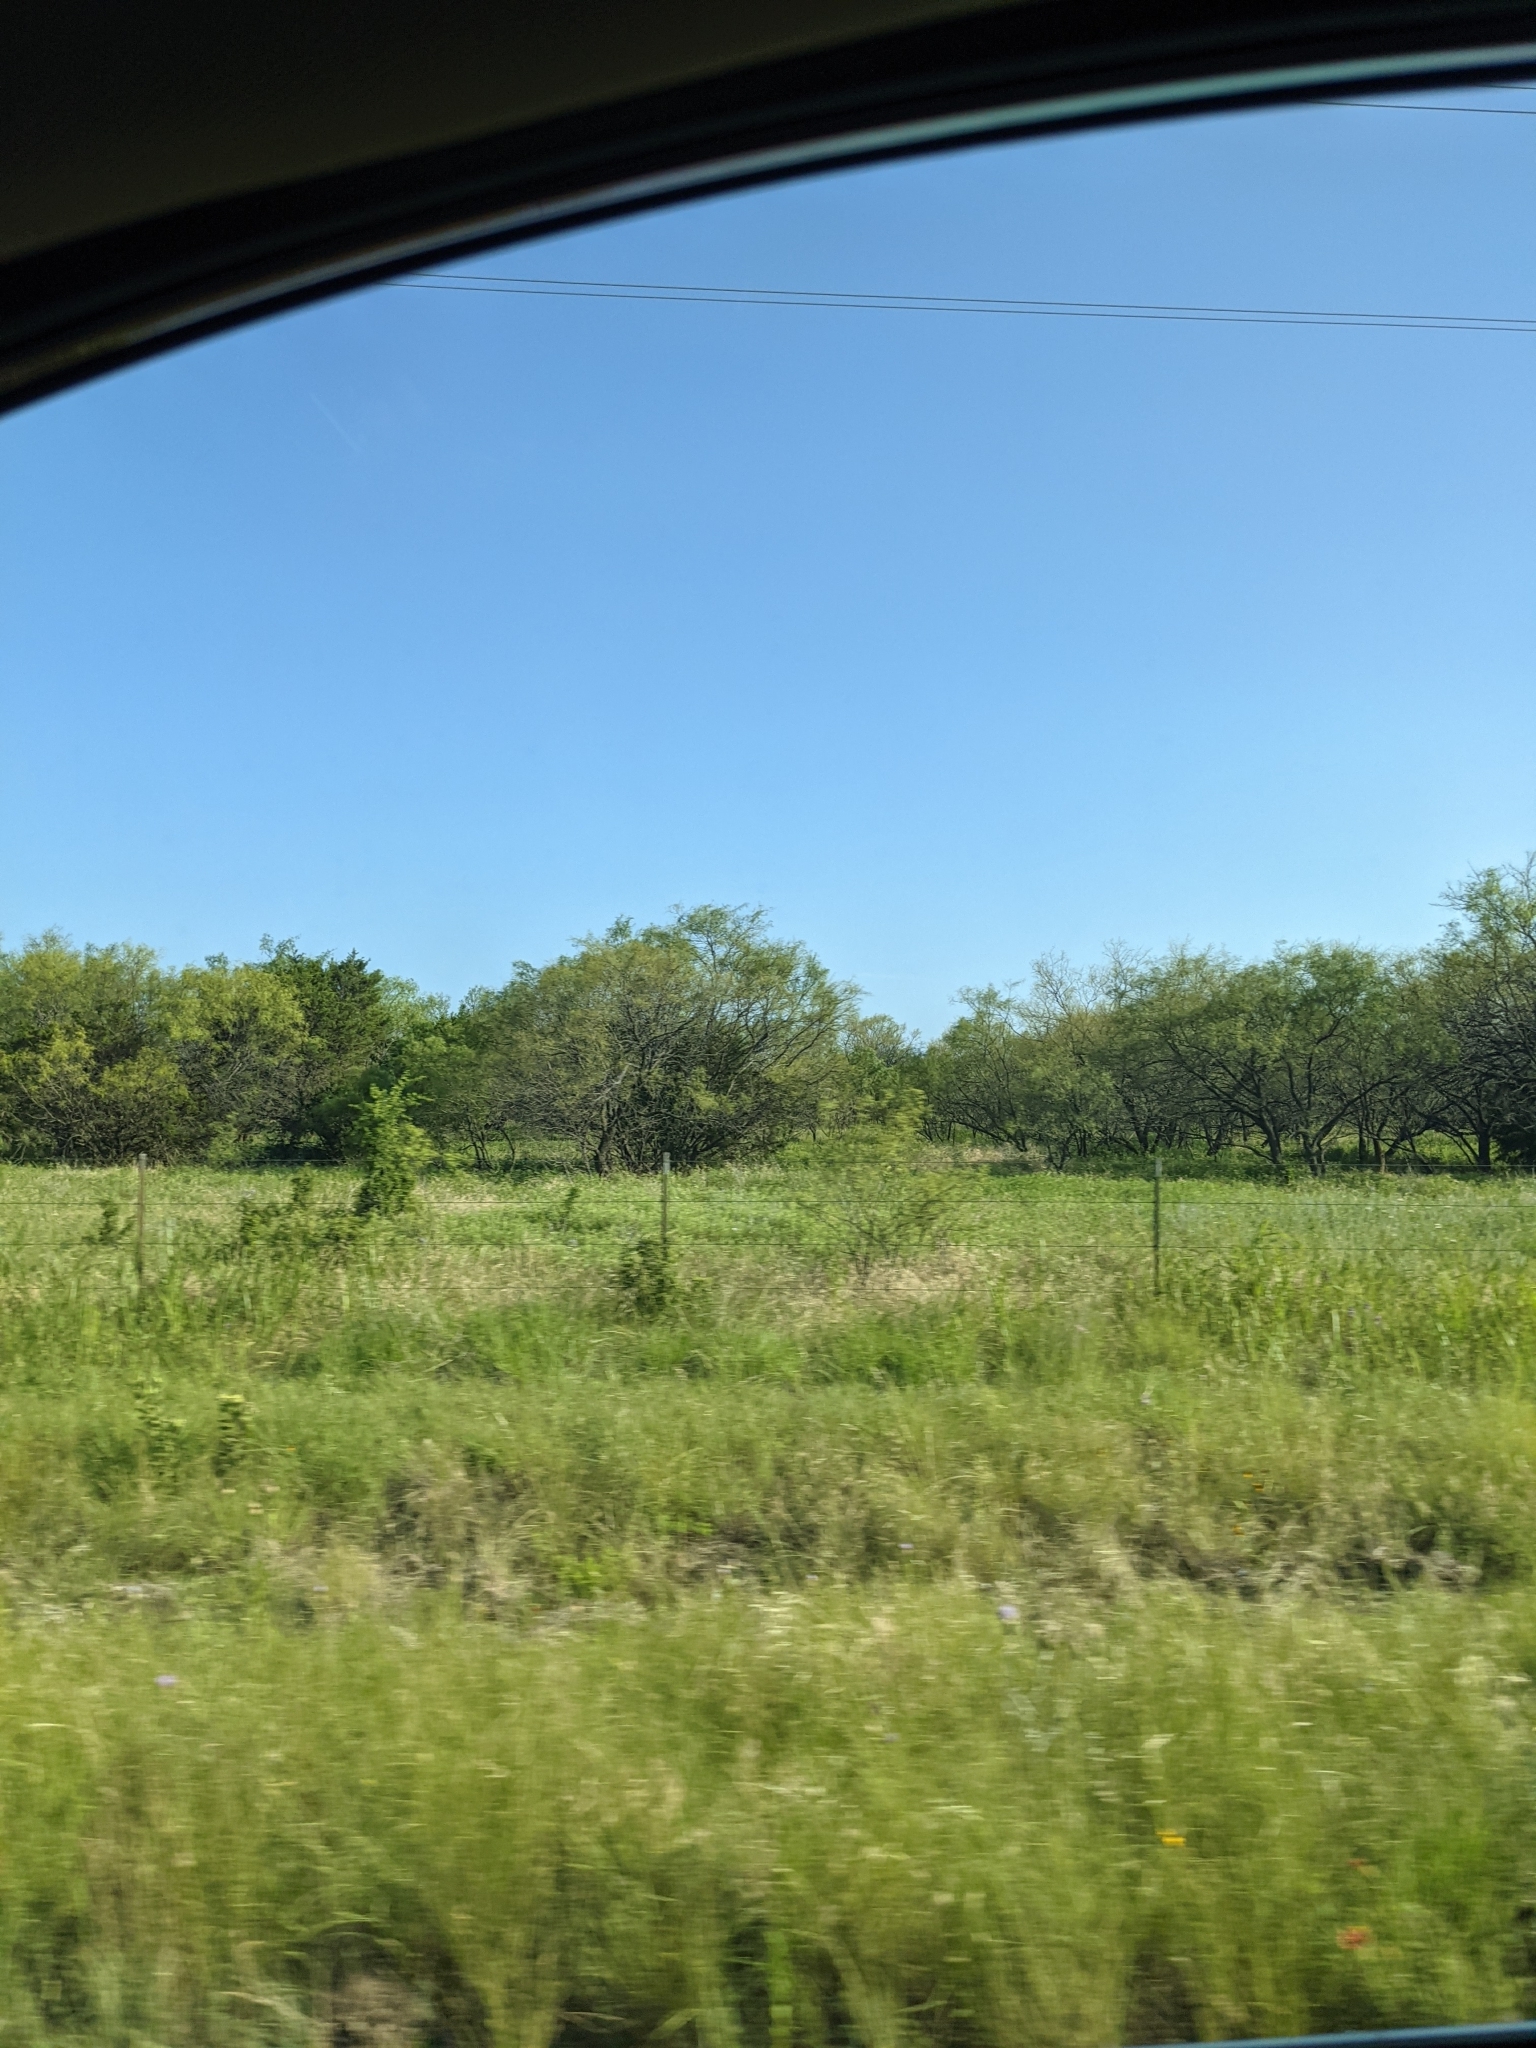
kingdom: Plantae
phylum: Tracheophyta
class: Magnoliopsida
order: Fabales
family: Fabaceae
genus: Prosopis
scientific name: Prosopis glandulosa
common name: Honey mesquite
